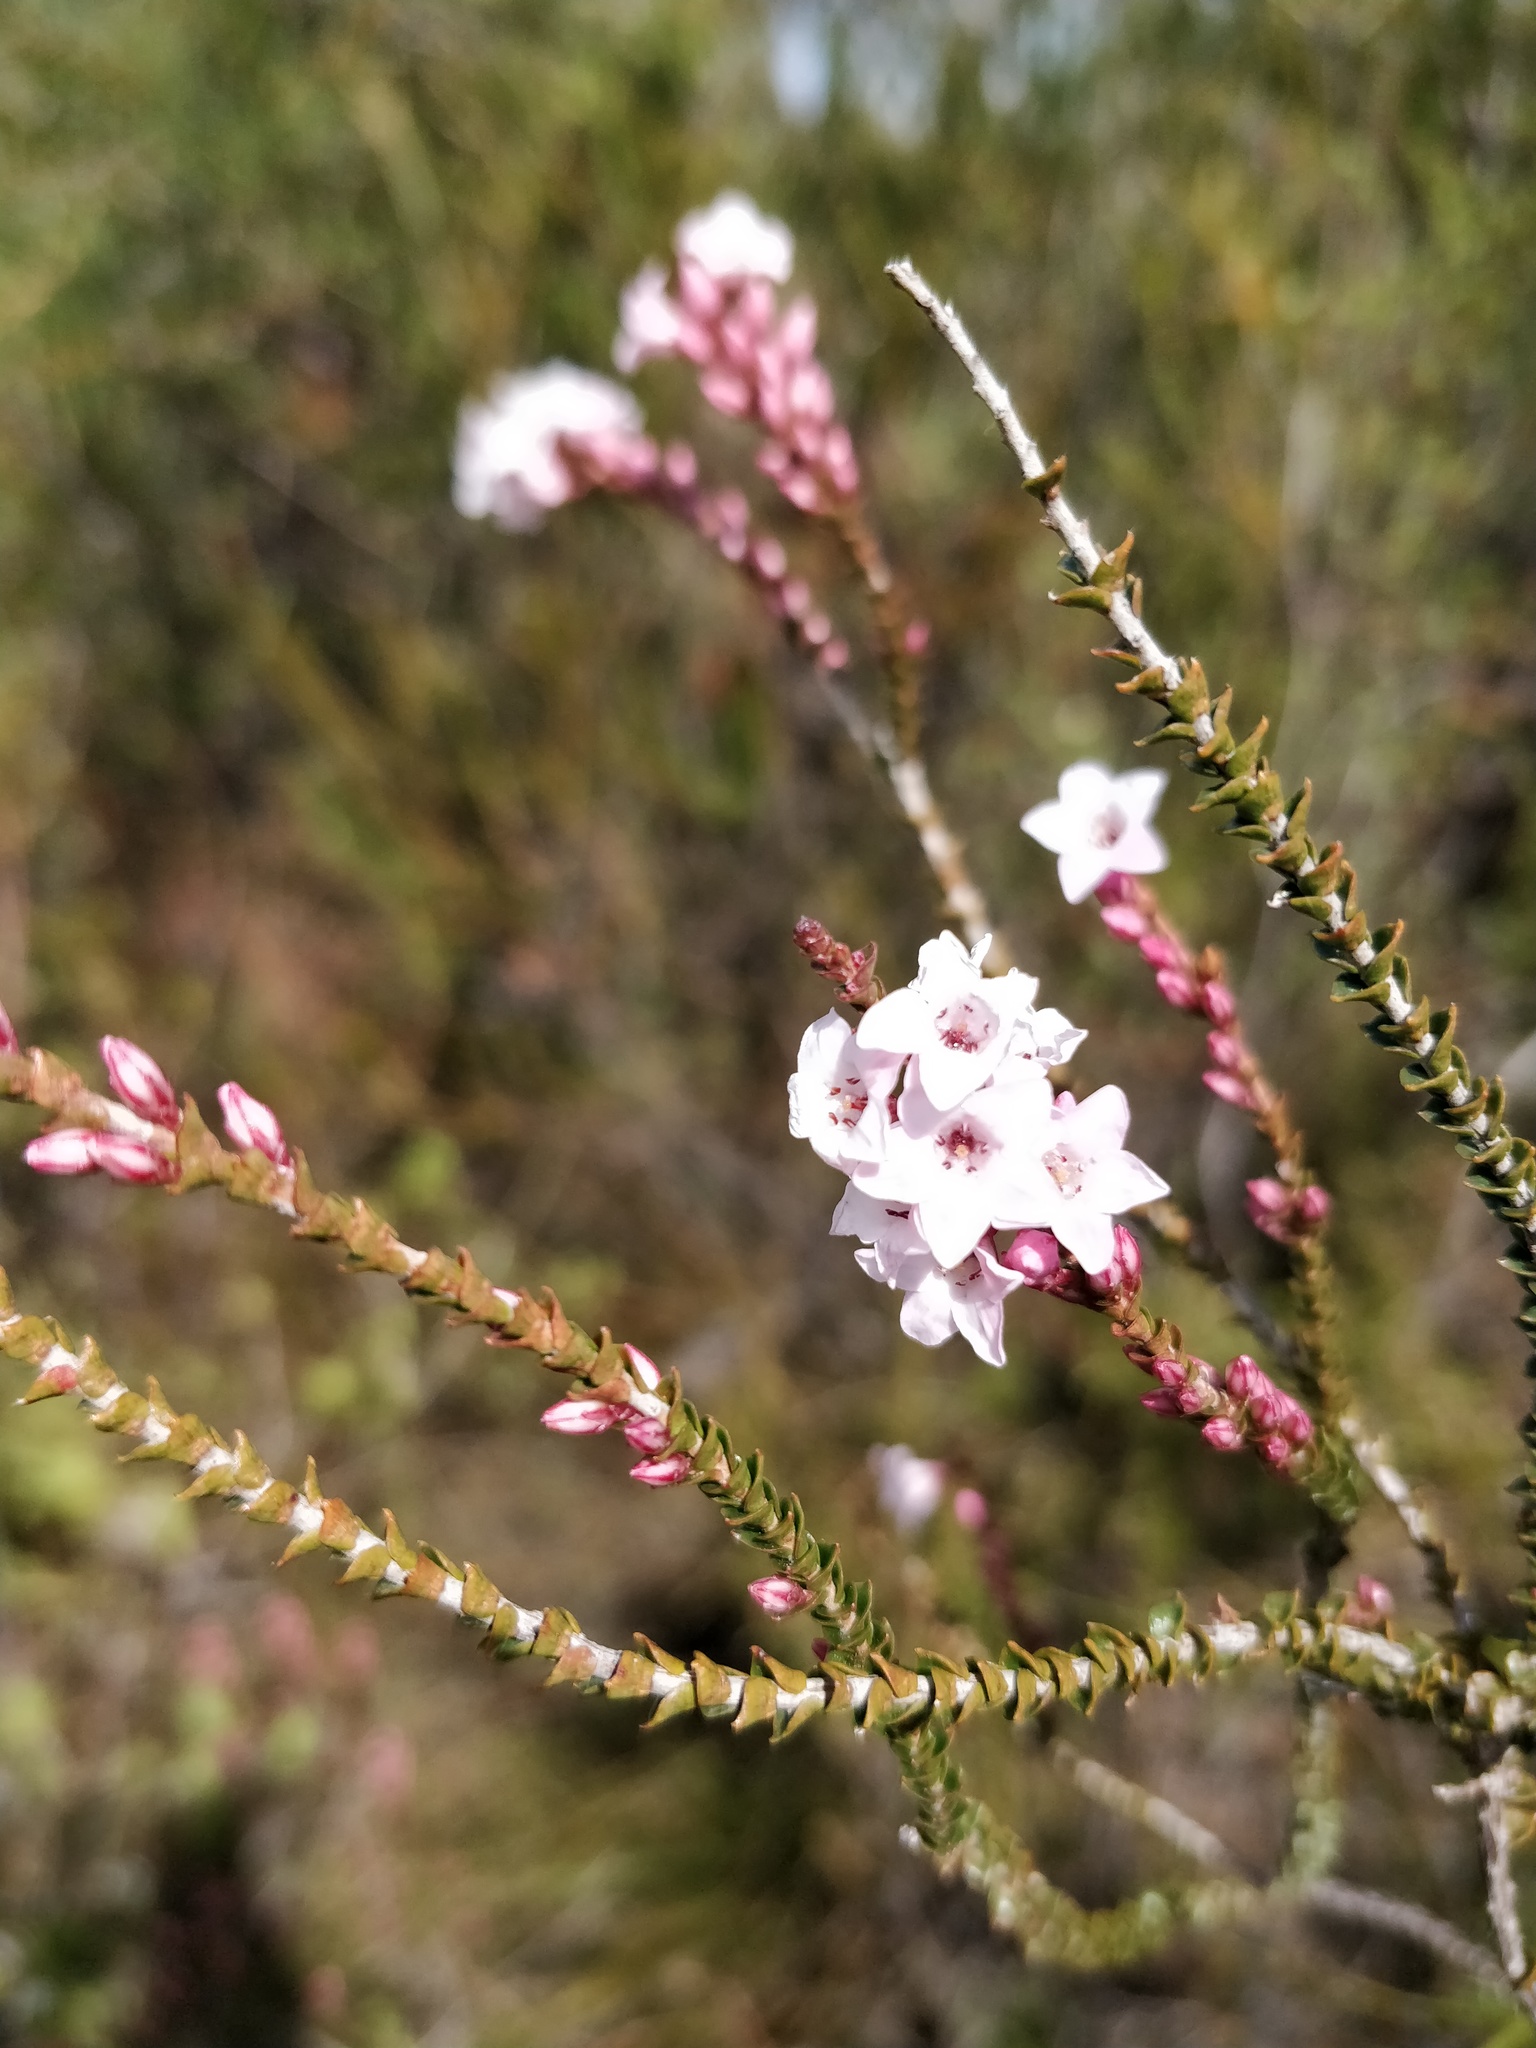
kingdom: Plantae
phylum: Tracheophyta
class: Magnoliopsida
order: Ericales
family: Ericaceae
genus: Epacris
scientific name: Epacris microphylla
